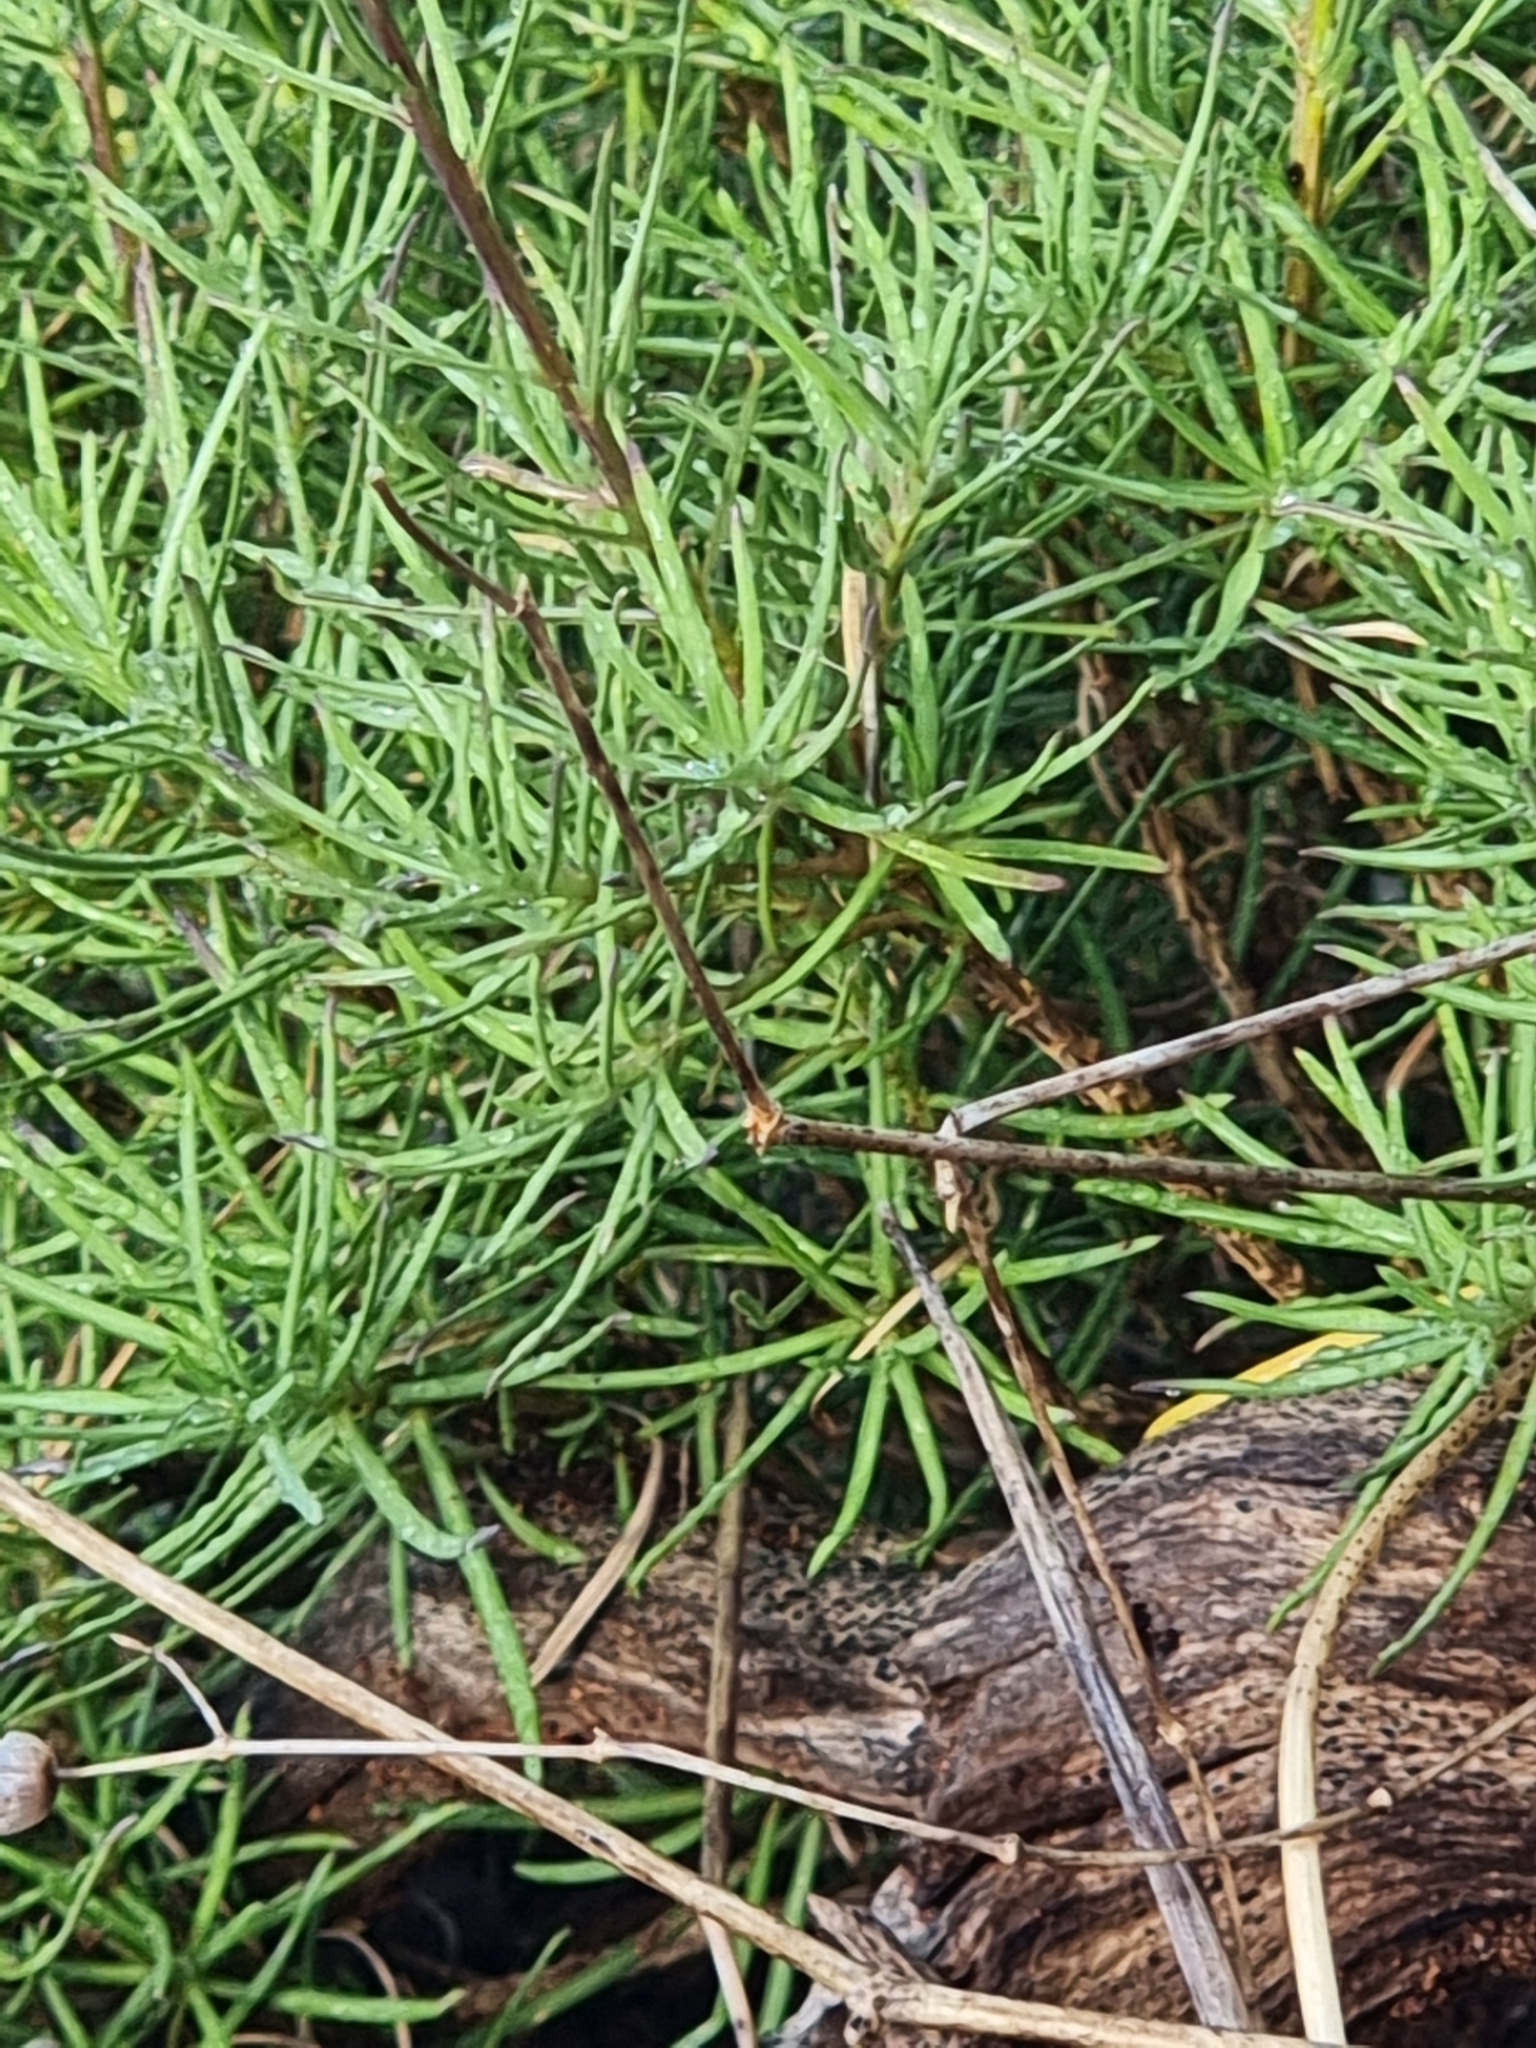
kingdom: Plantae
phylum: Tracheophyta
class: Magnoliopsida
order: Brassicales
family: Brassicaceae
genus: Erysimum
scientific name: Erysimum maderense
